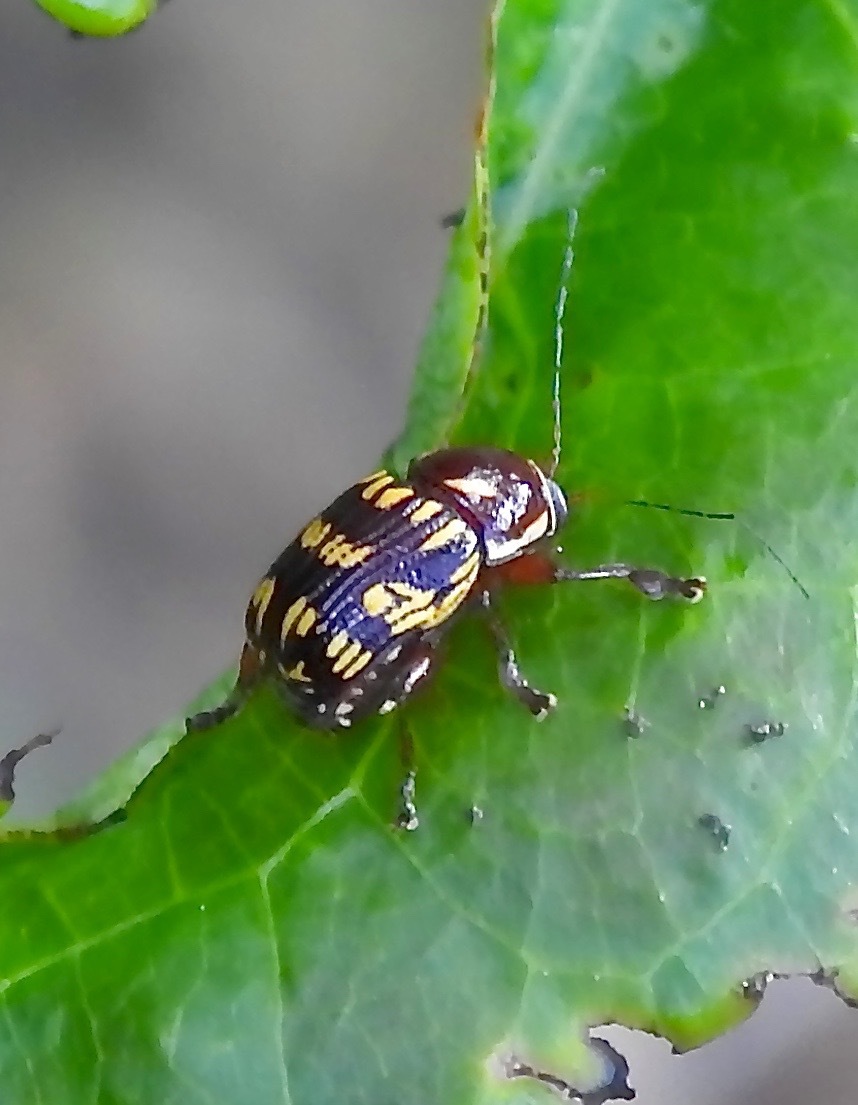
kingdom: Animalia
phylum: Arthropoda
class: Insecta
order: Coleoptera
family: Chrysomelidae
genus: Bassareus
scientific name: Bassareus brunnipes
